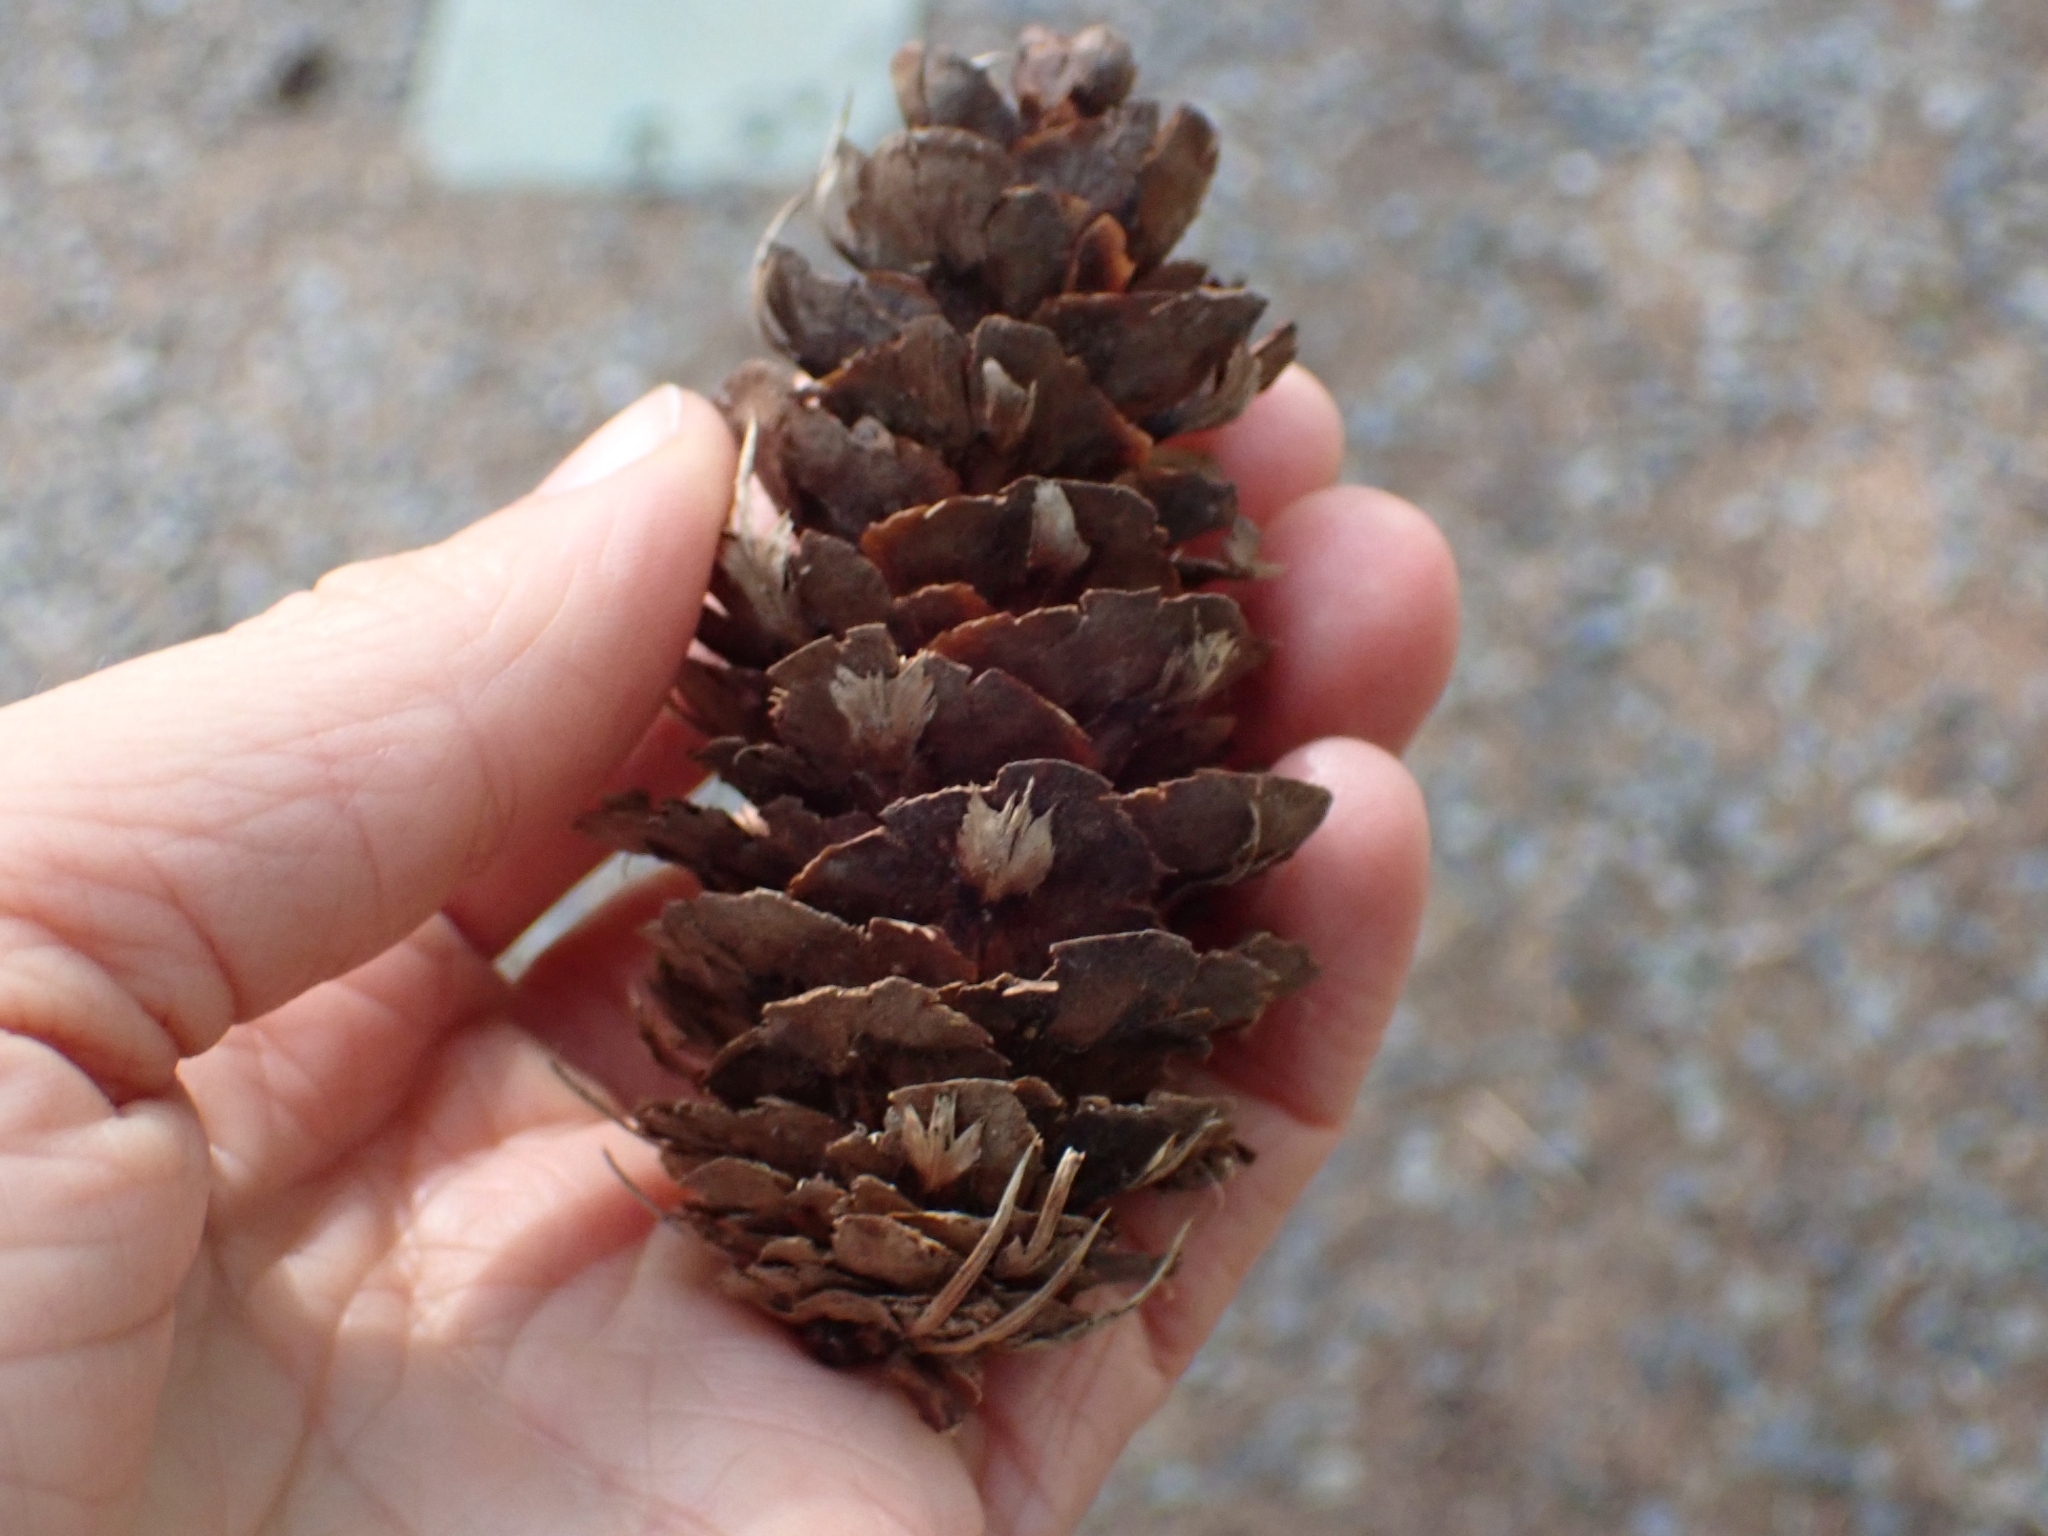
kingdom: Plantae
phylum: Tracheophyta
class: Pinopsida
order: Pinales
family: Pinaceae
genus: Pseudotsuga
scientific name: Pseudotsuga menziesii
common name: Douglas fir
